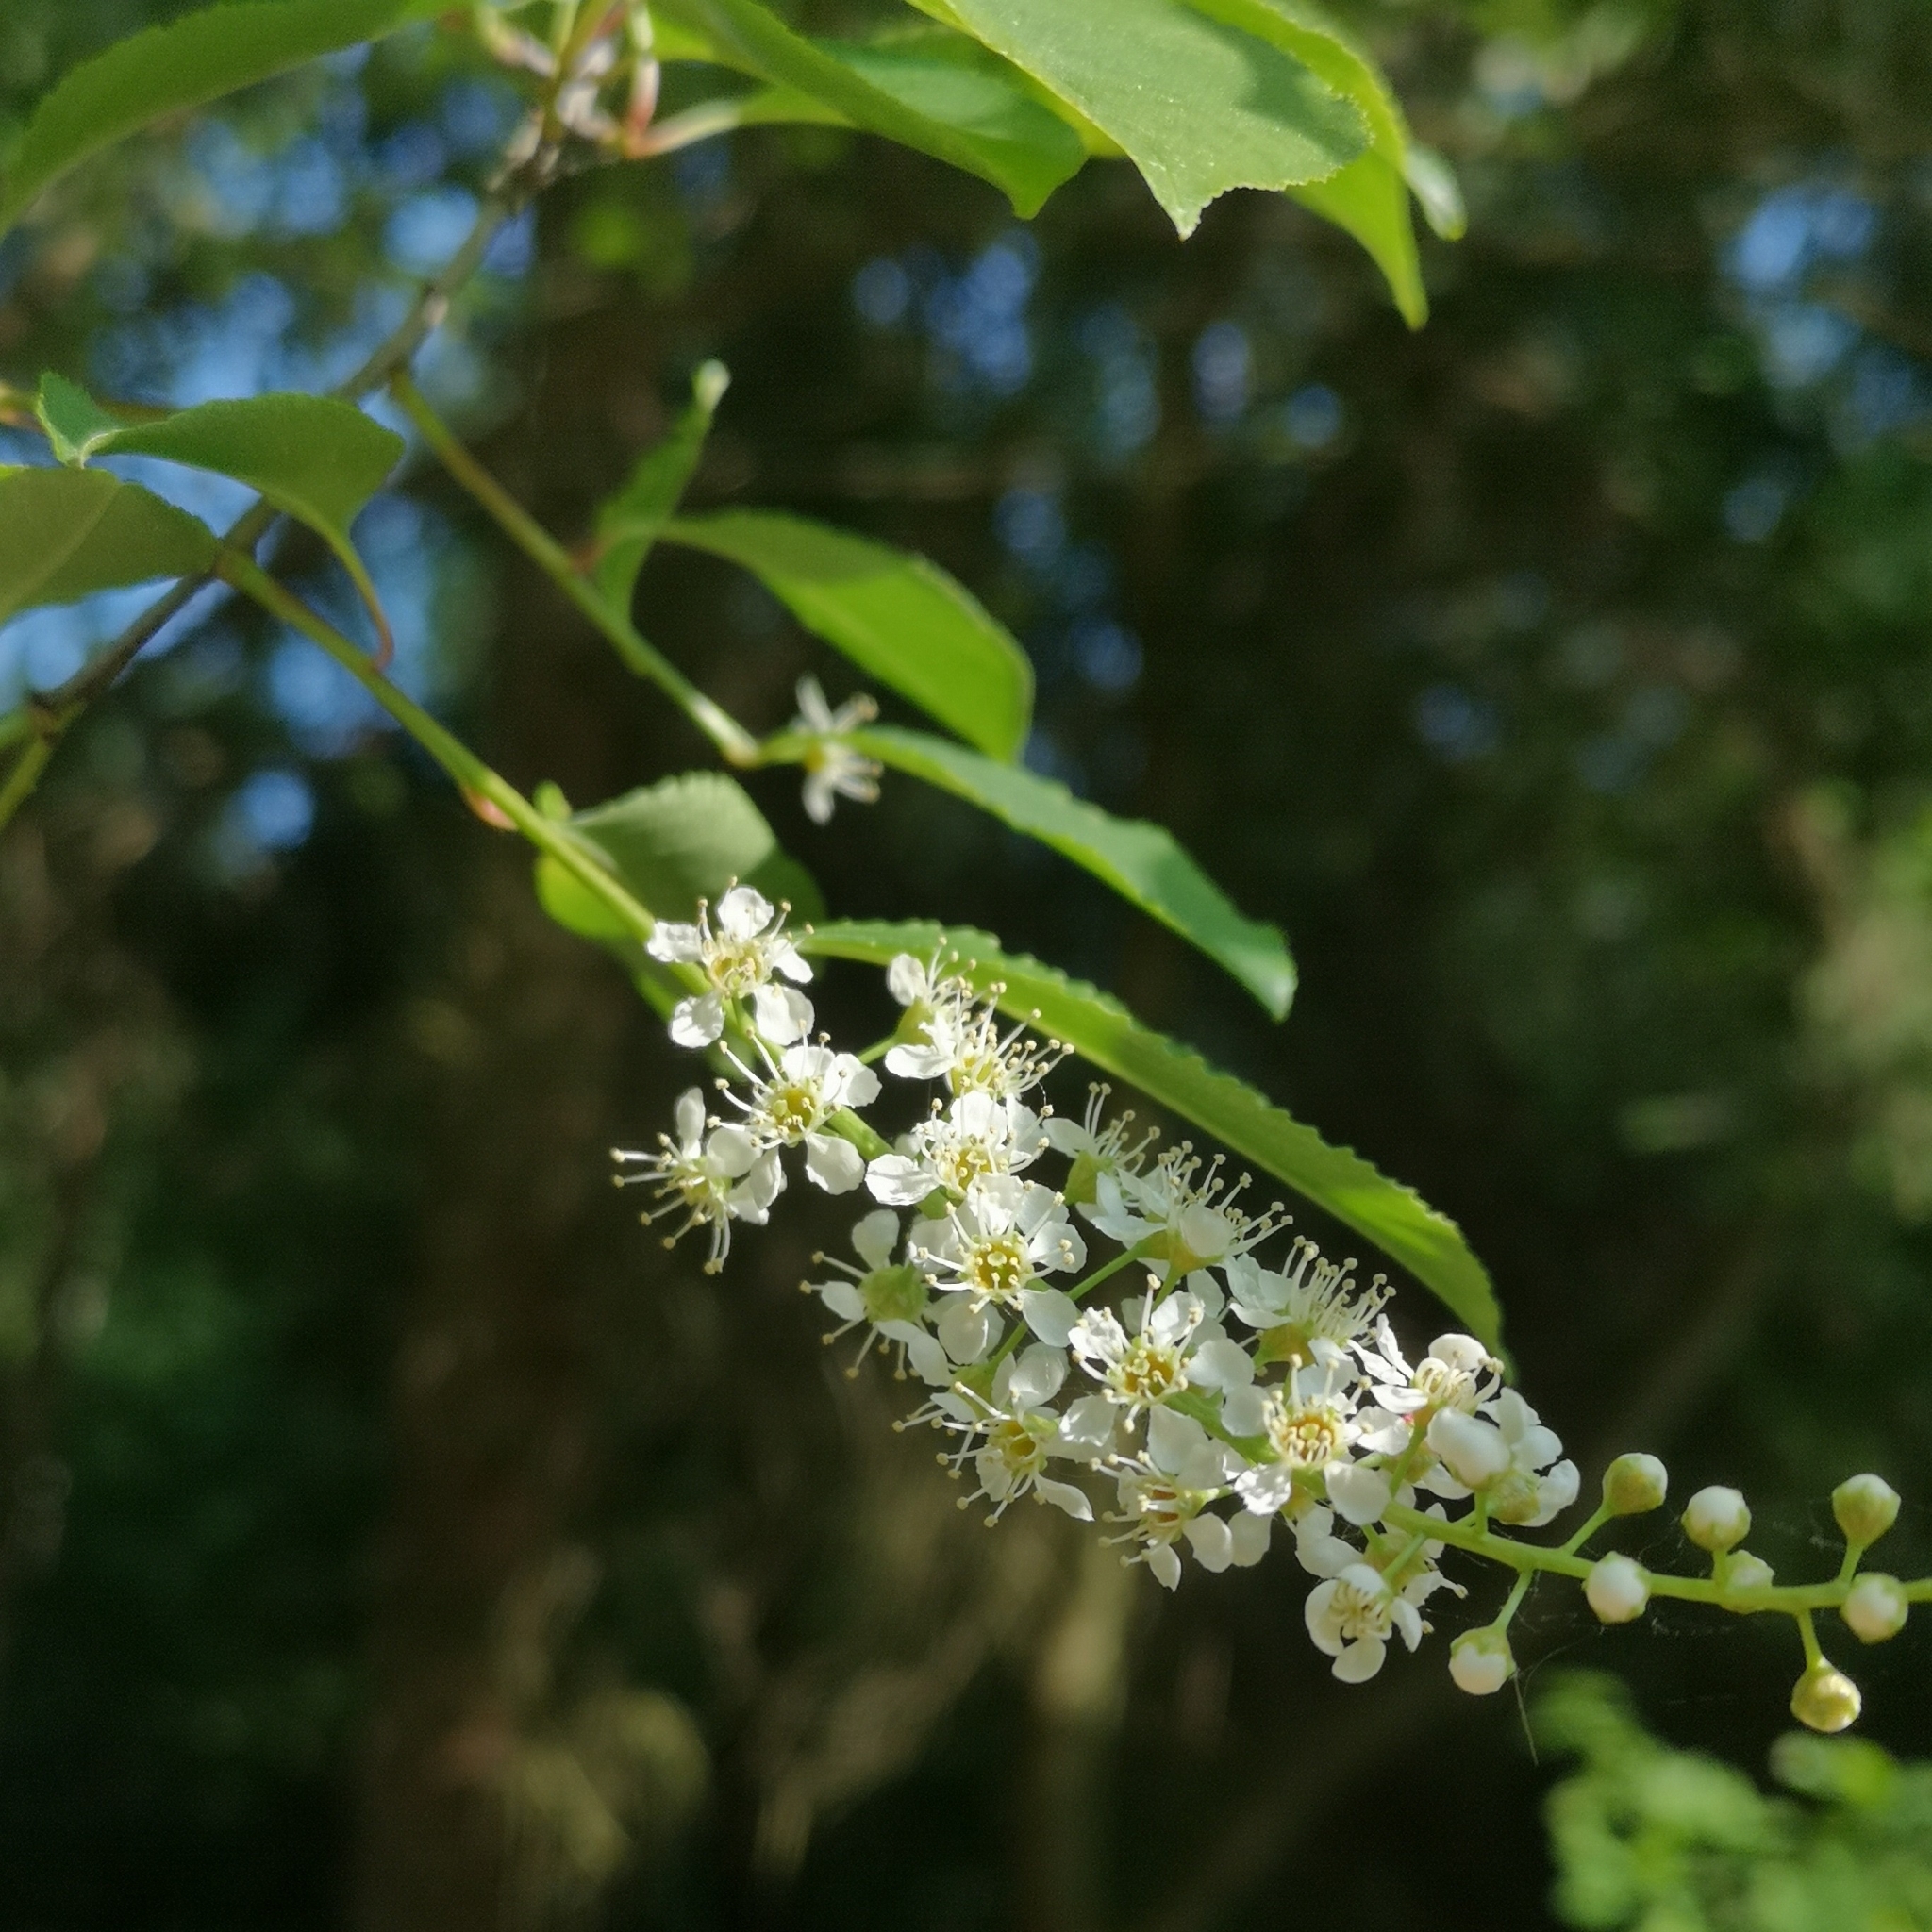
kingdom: Plantae
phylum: Tracheophyta
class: Magnoliopsida
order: Rosales
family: Rosaceae
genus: Prunus
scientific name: Prunus serotina
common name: Black cherry
